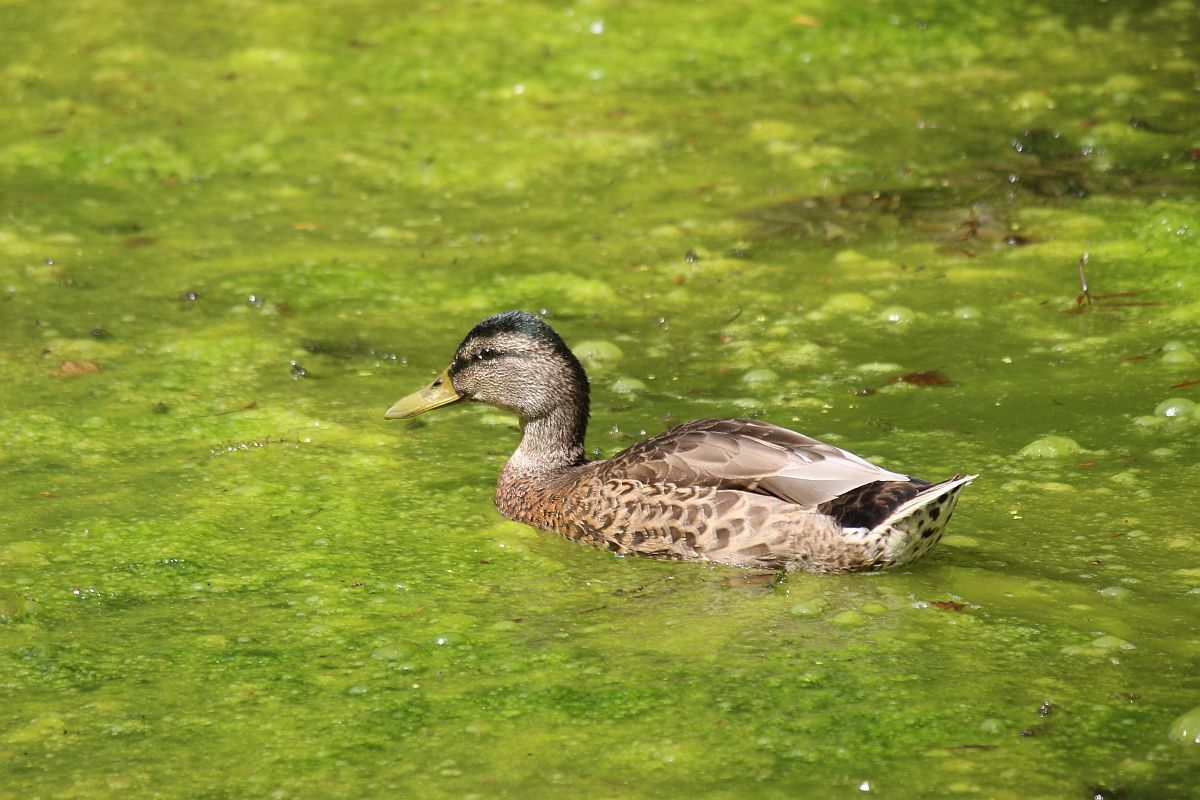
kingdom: Animalia
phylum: Chordata
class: Aves
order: Anseriformes
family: Anatidae
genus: Anas
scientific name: Anas platyrhynchos
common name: Mallard
